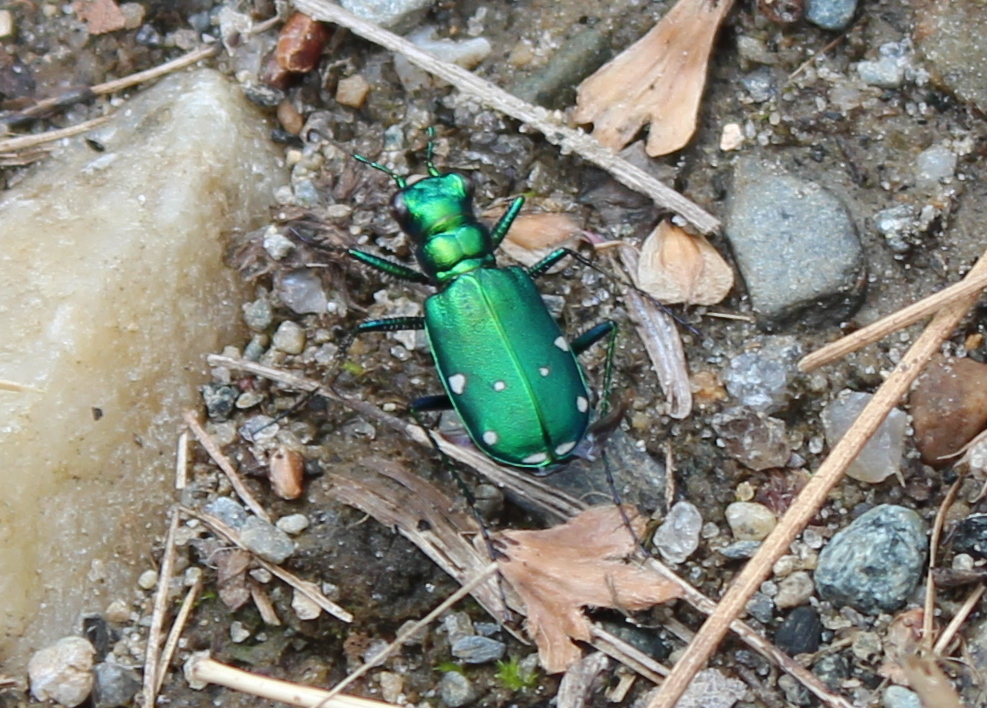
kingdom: Animalia
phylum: Arthropoda
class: Insecta
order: Coleoptera
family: Carabidae
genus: Cicindela
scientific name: Cicindela sexguttata
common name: Six-spotted tiger beetle
